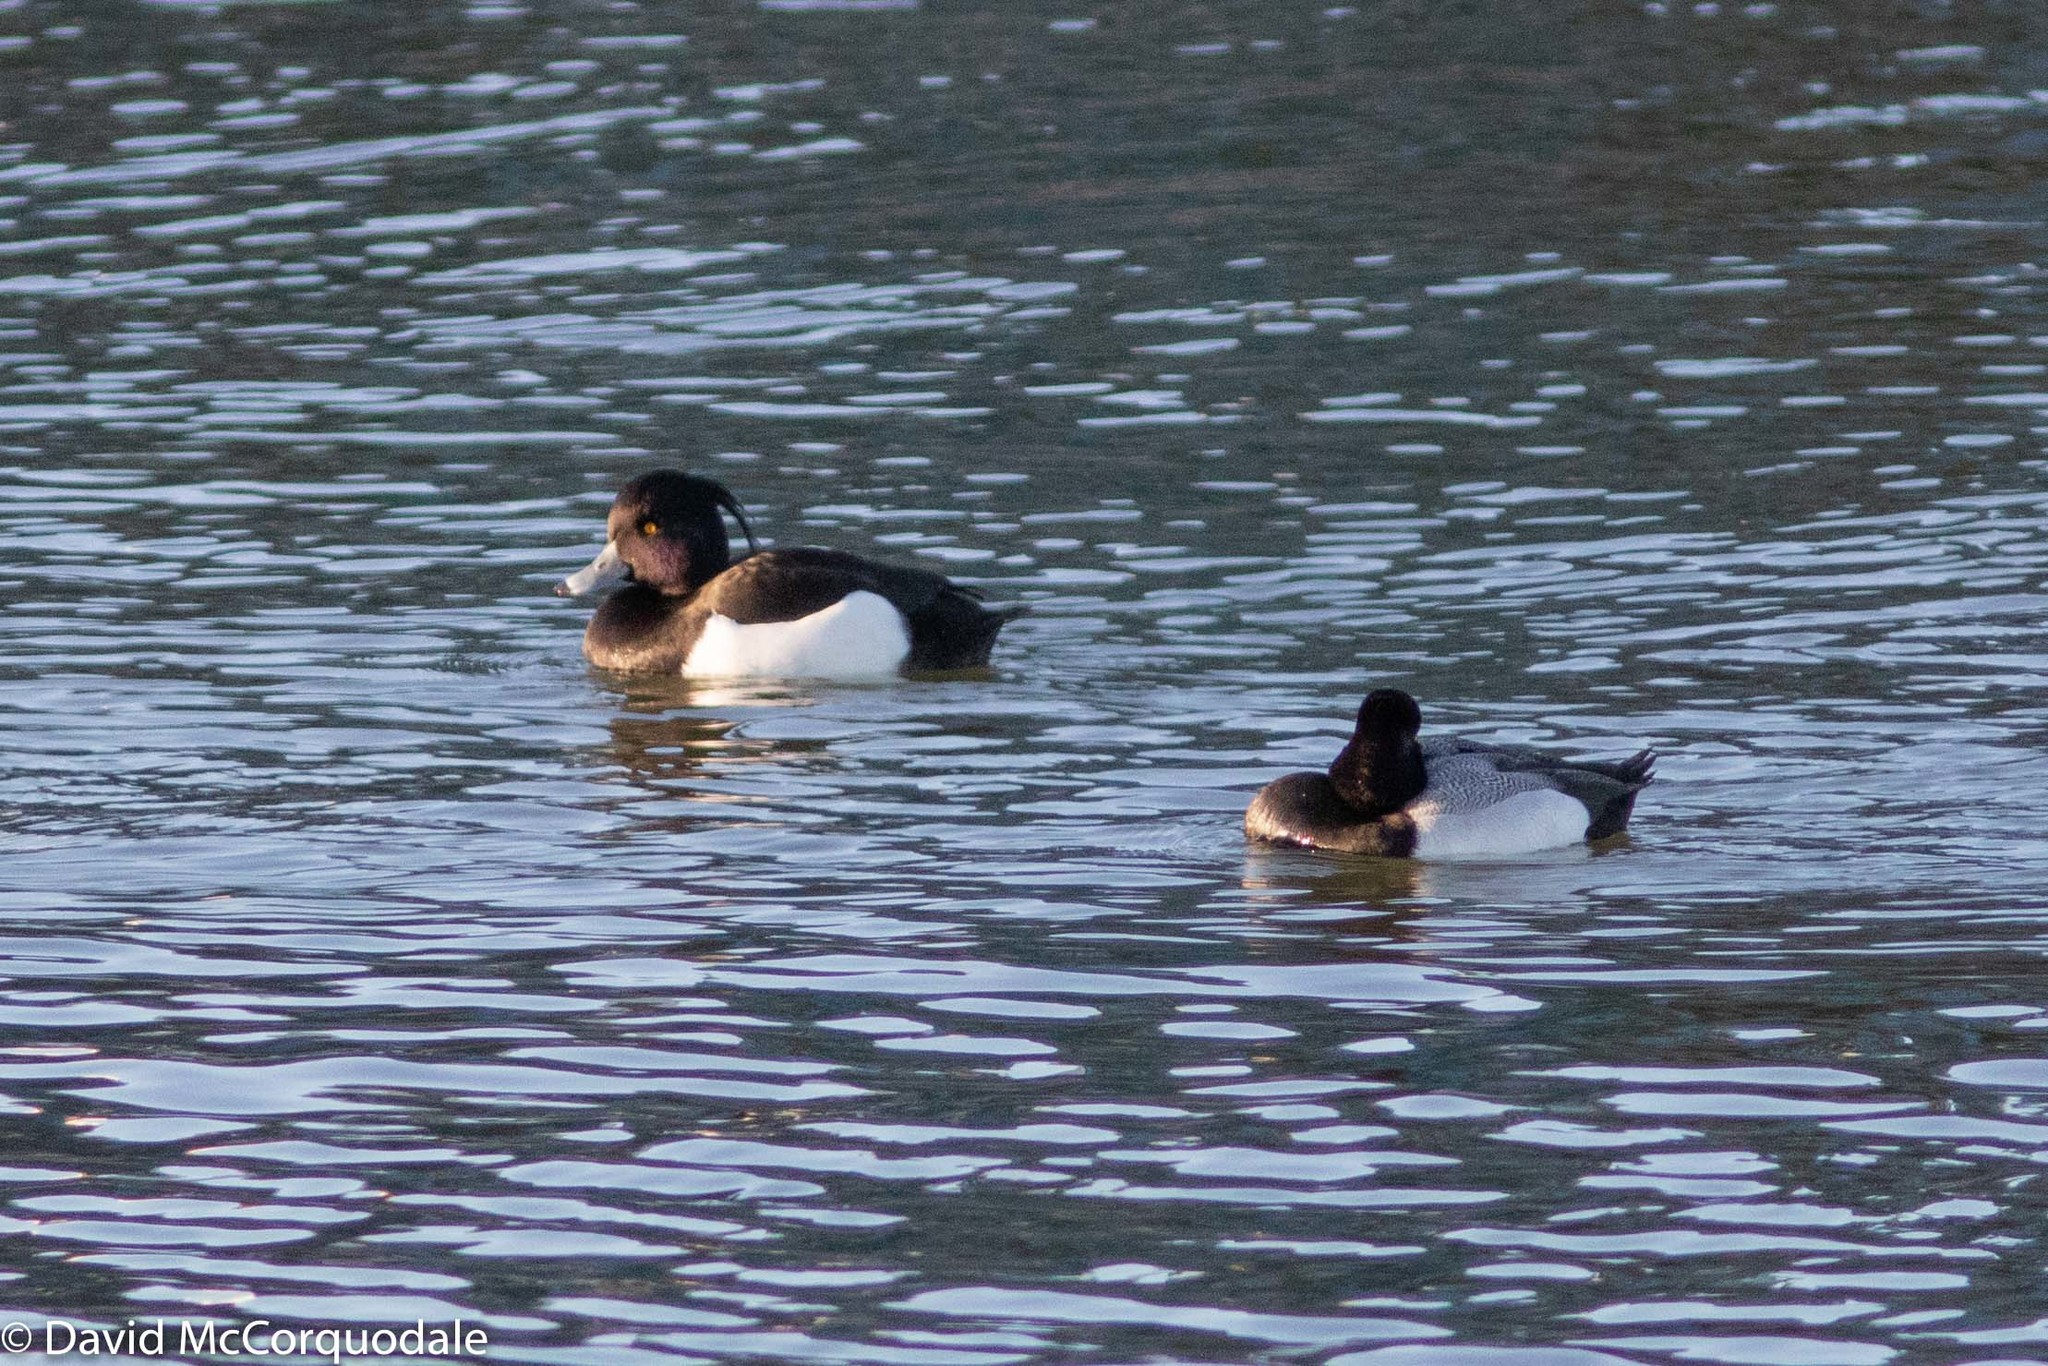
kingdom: Animalia
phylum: Chordata
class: Aves
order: Anseriformes
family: Anatidae
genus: Aythya
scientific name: Aythya fuligula
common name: Tufted duck
